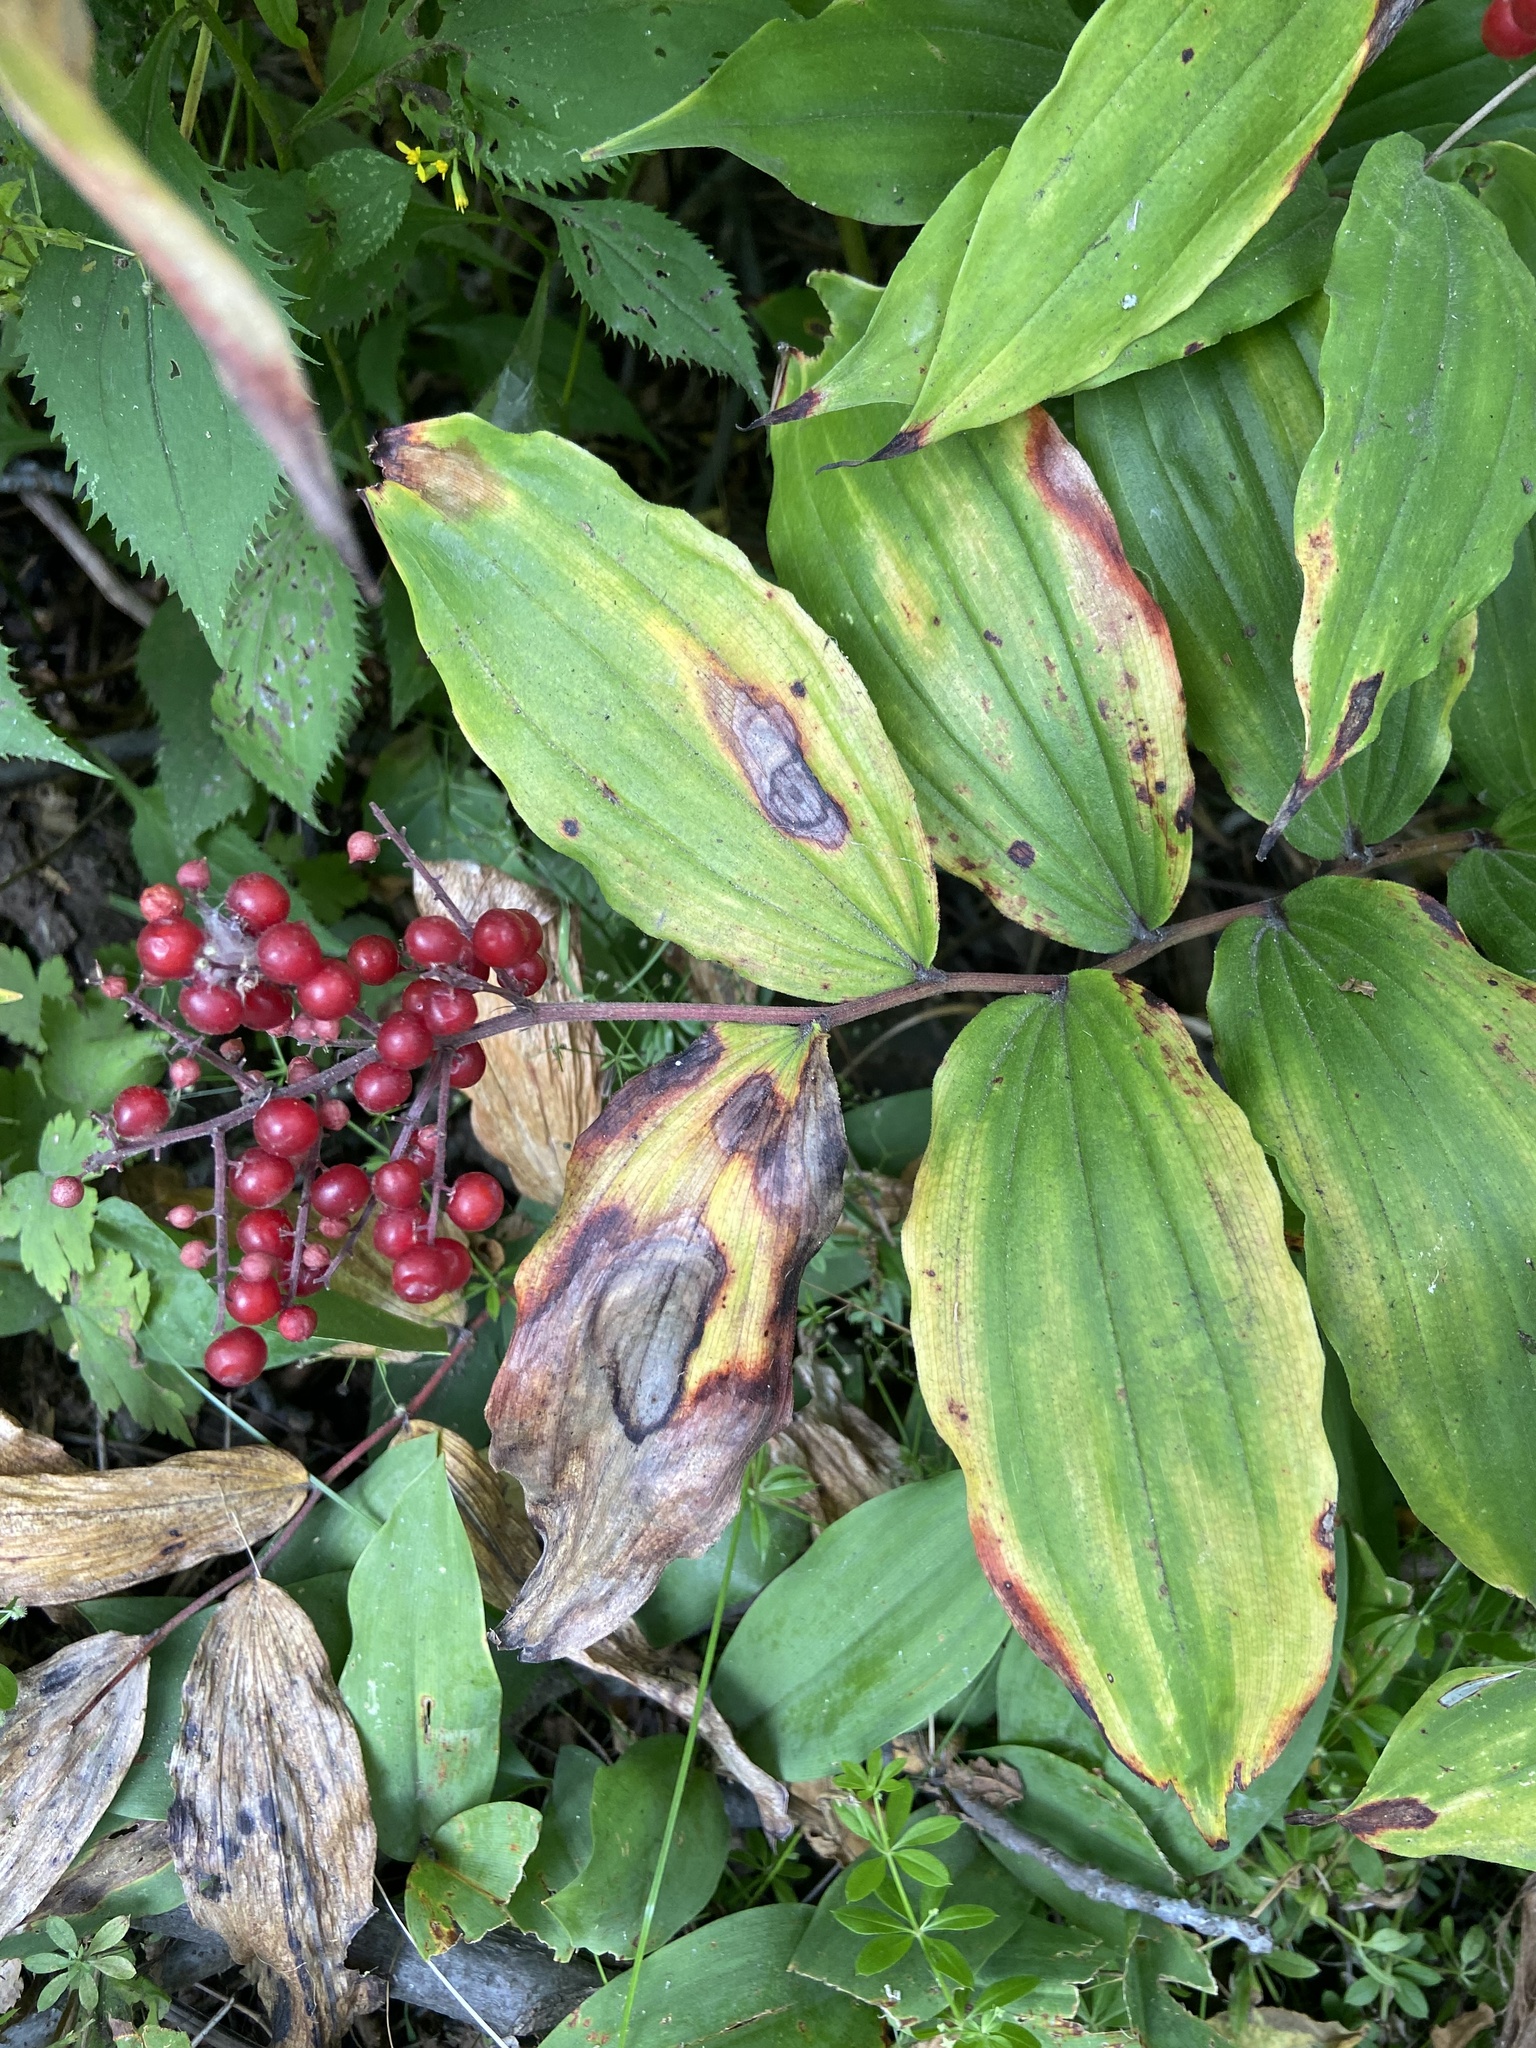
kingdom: Plantae
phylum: Tracheophyta
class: Liliopsida
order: Asparagales
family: Asparagaceae
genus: Maianthemum
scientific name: Maianthemum racemosum
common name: False spikenard
